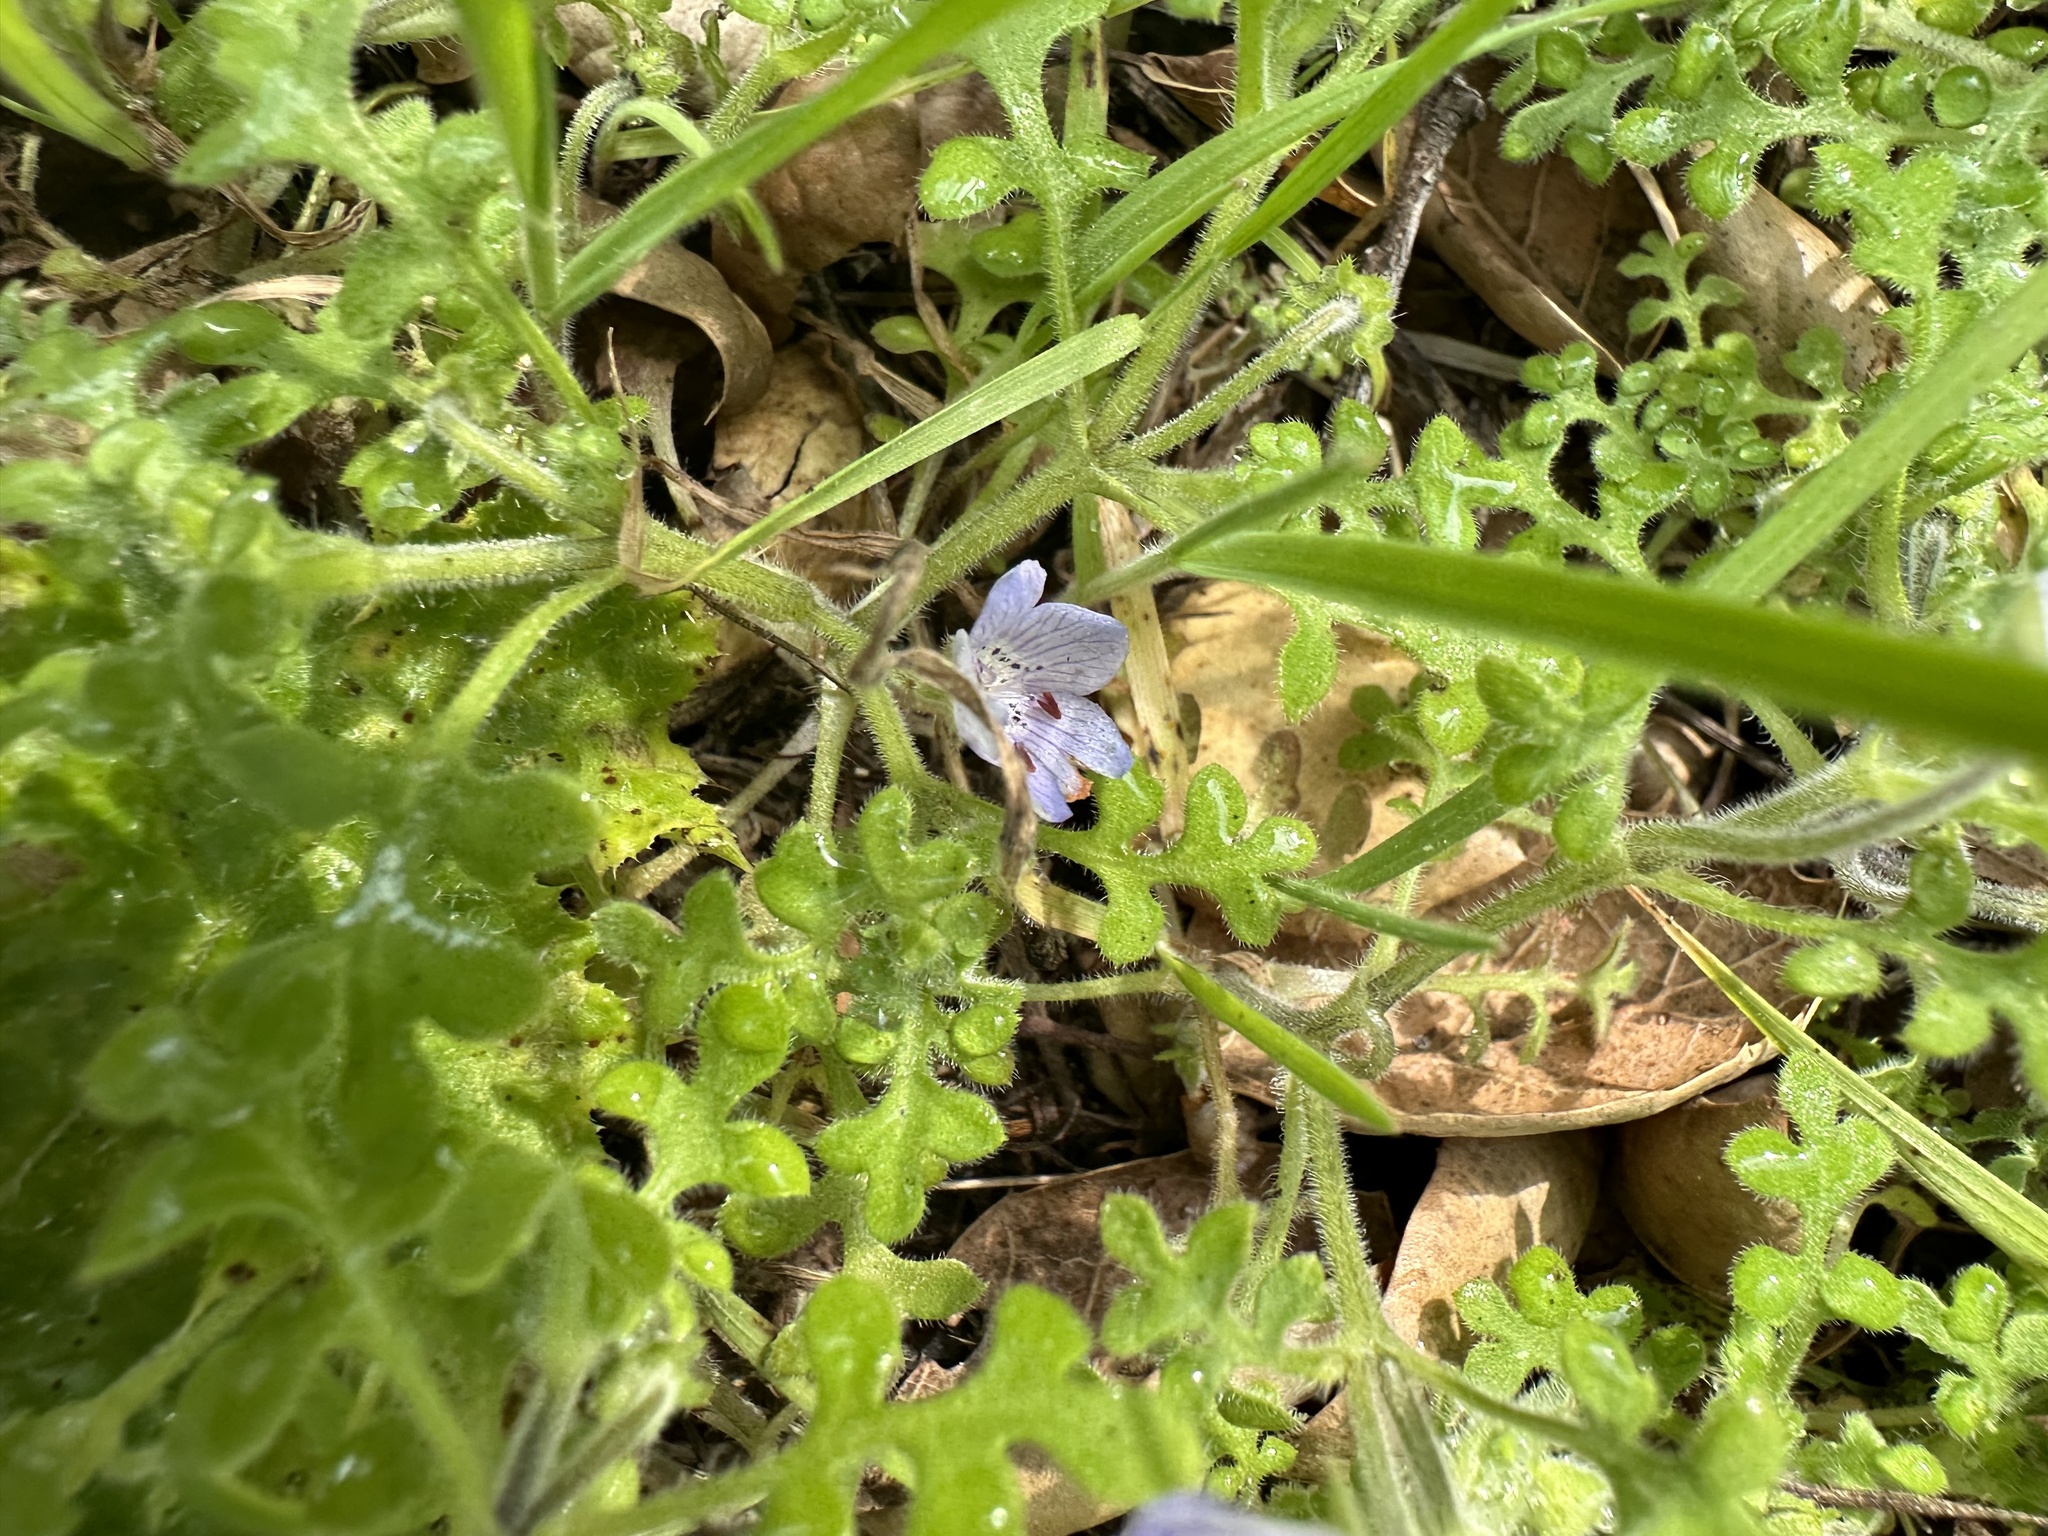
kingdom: Plantae
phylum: Tracheophyta
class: Magnoliopsida
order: Boraginales
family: Hydrophyllaceae
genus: Nemophila
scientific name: Nemophila menziesii
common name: Baby's-blue-eyes
